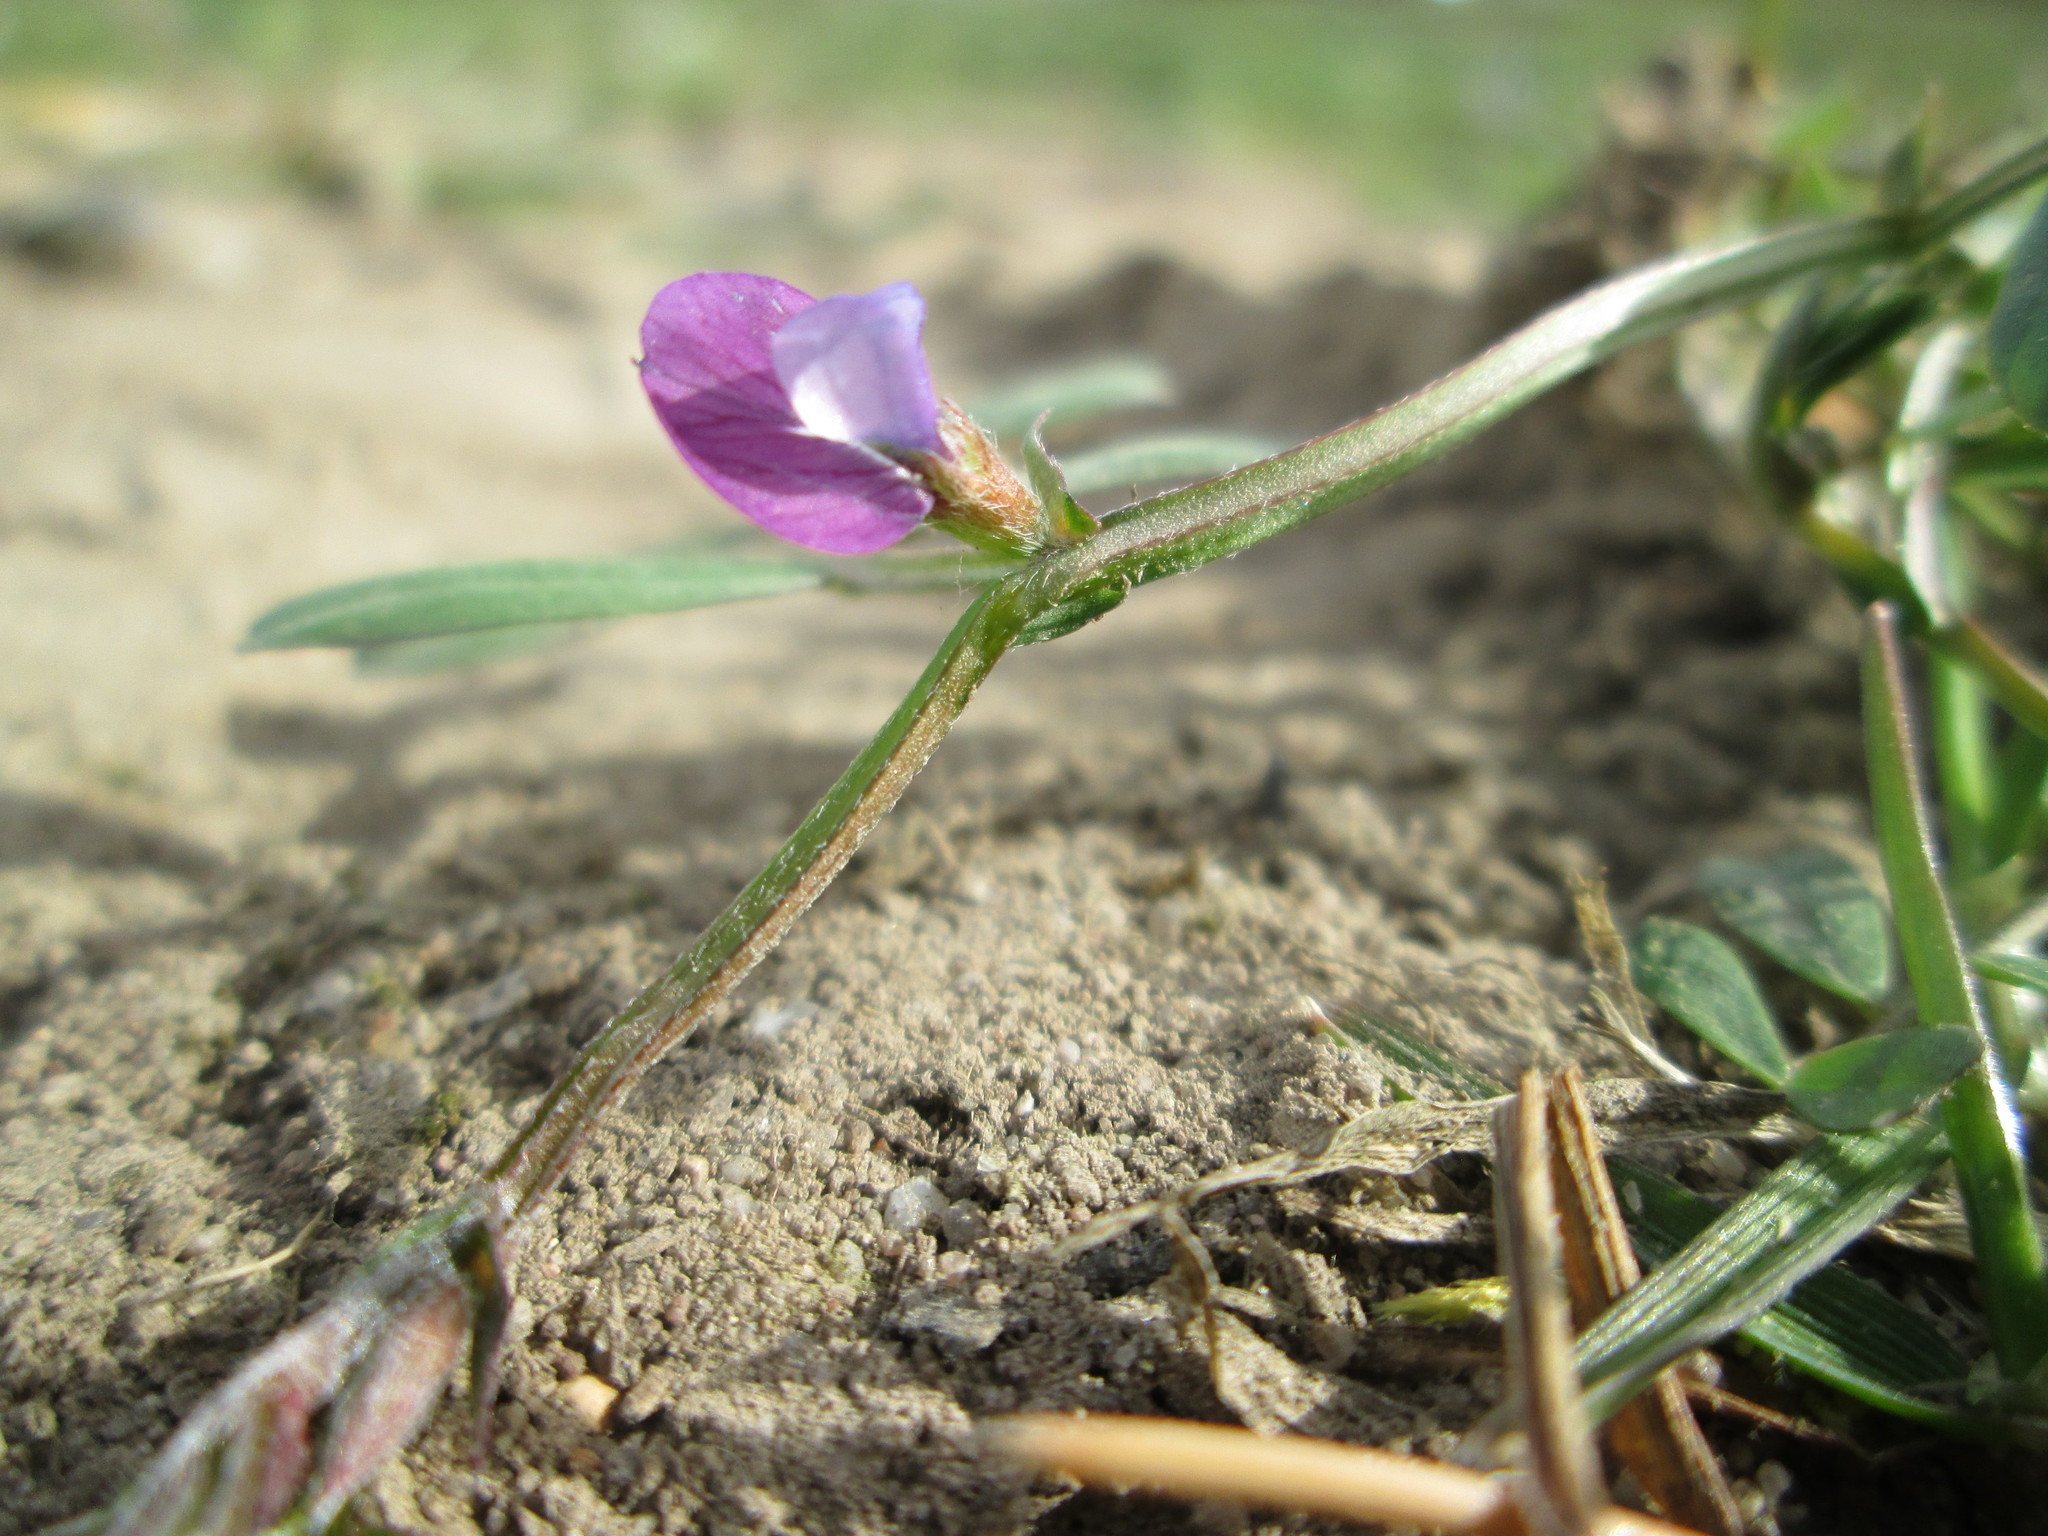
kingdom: Plantae
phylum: Tracheophyta
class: Magnoliopsida
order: Fabales
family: Fabaceae
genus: Vicia
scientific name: Vicia lathyroides
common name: Spring vetch
